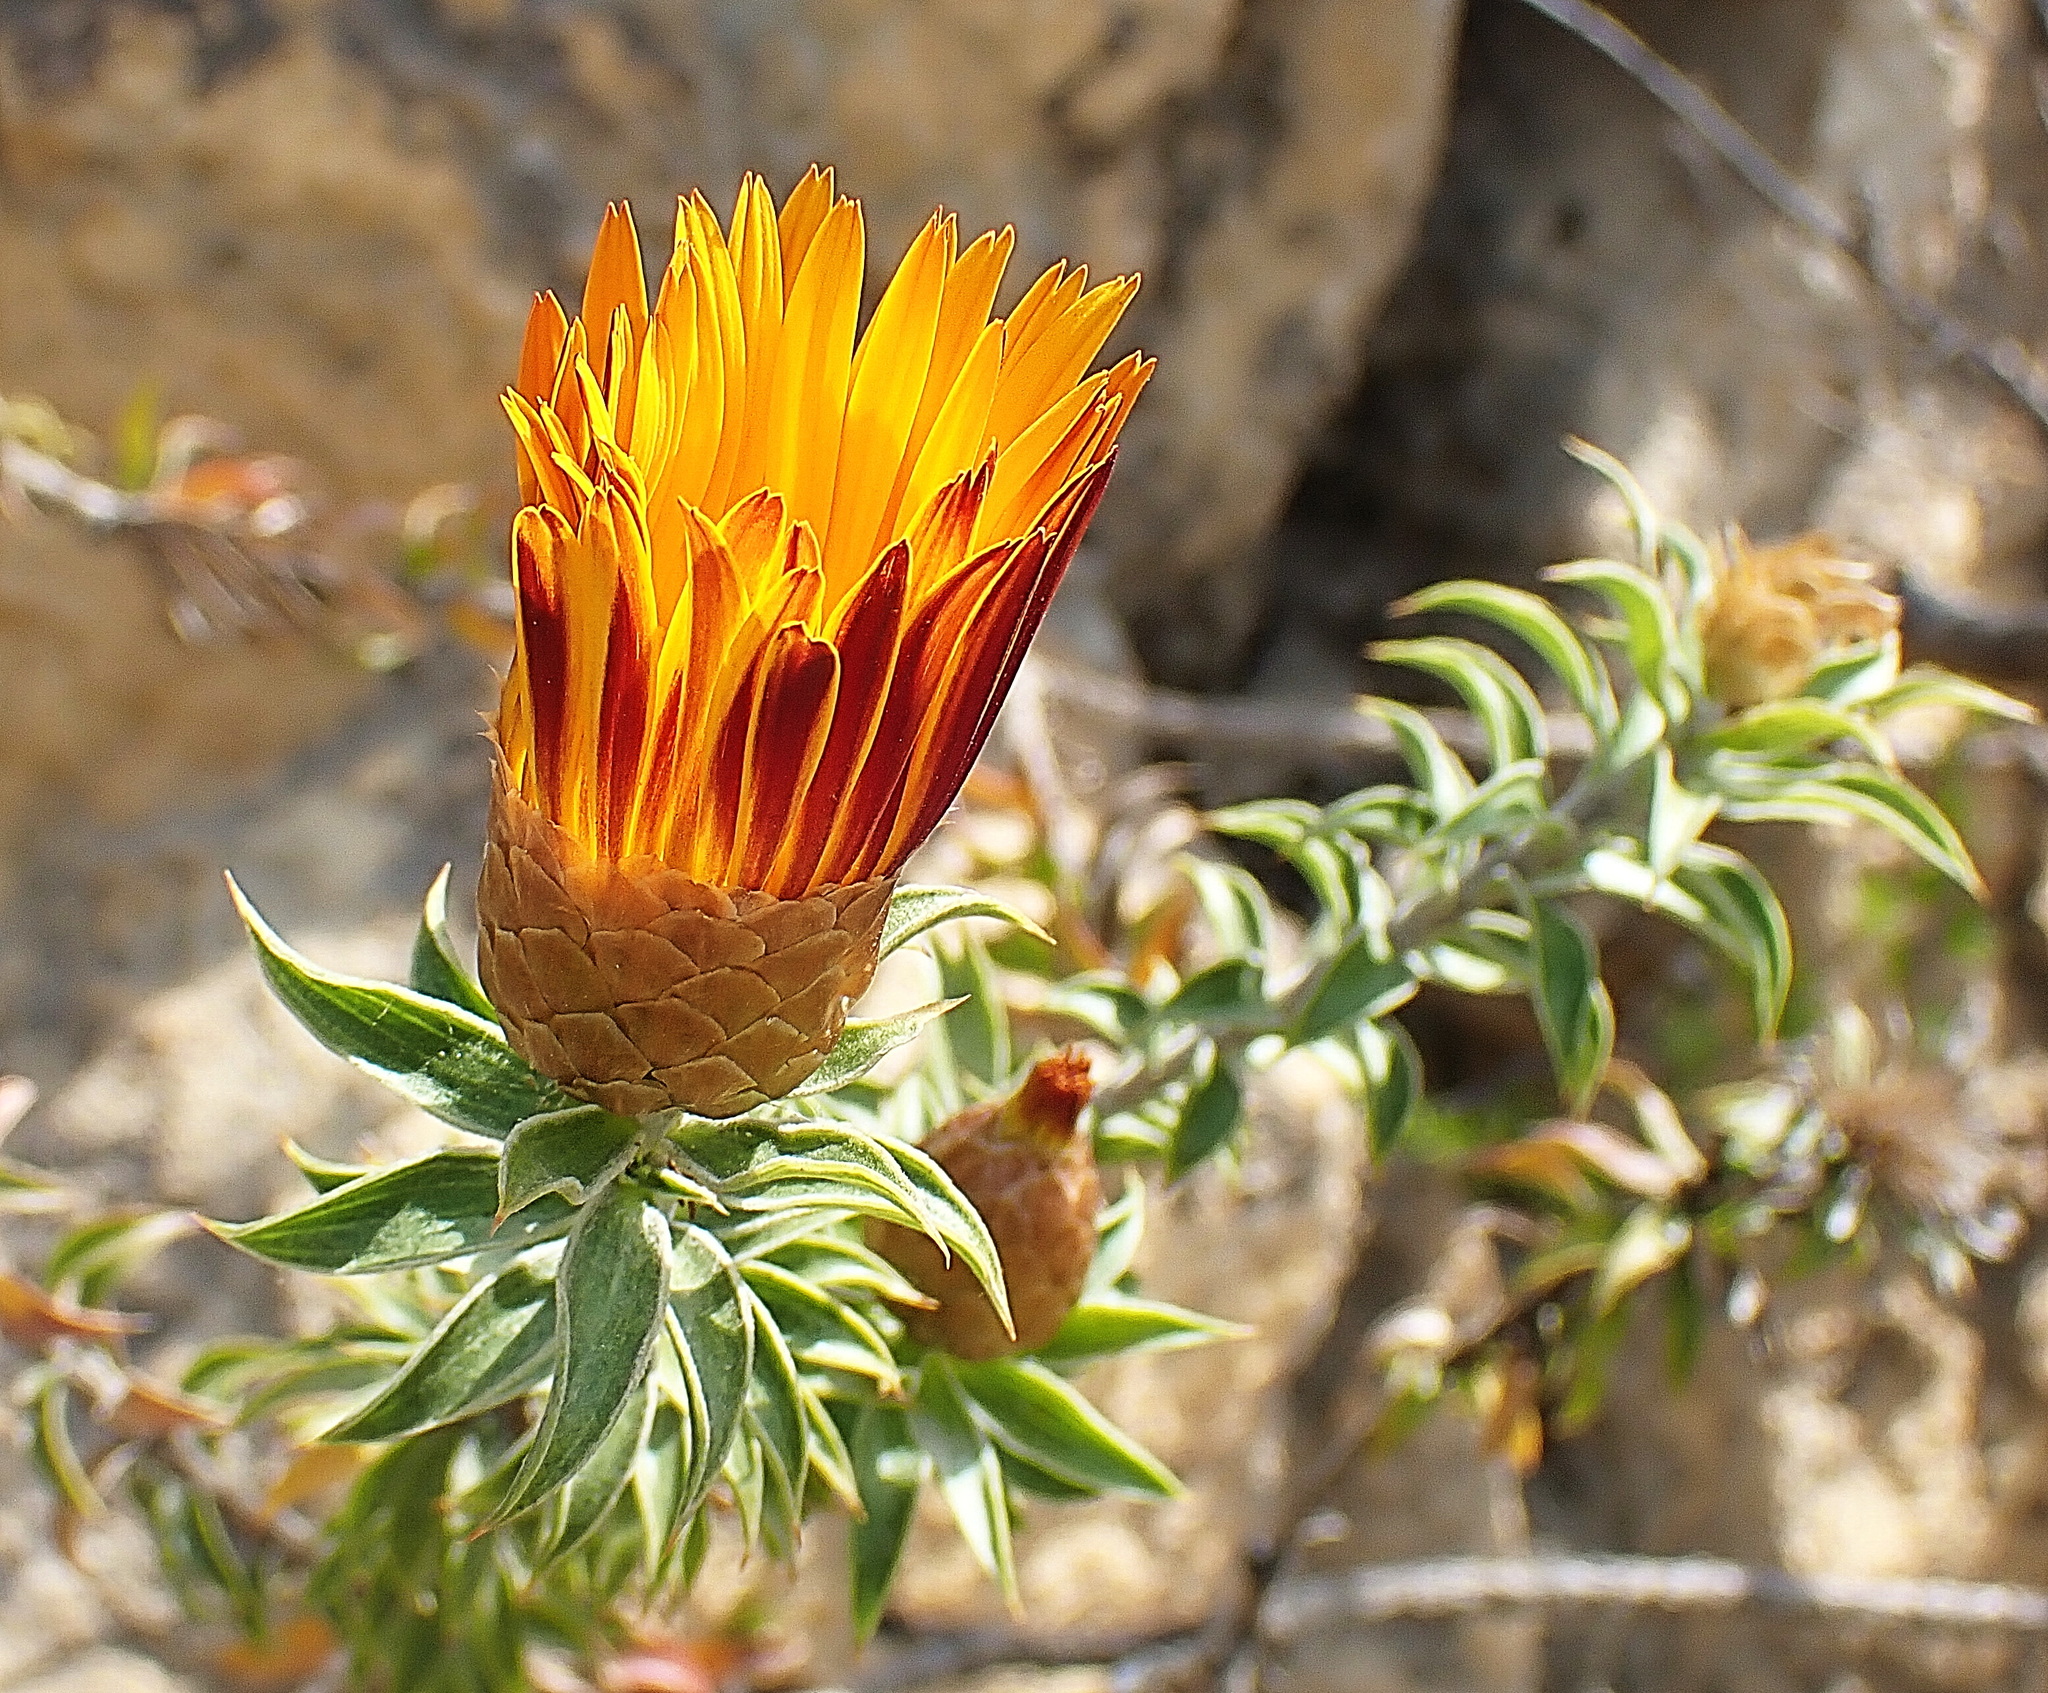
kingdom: Plantae
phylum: Tracheophyta
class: Magnoliopsida
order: Asterales
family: Asteraceae
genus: Oedera
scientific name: Oedera speciosa
